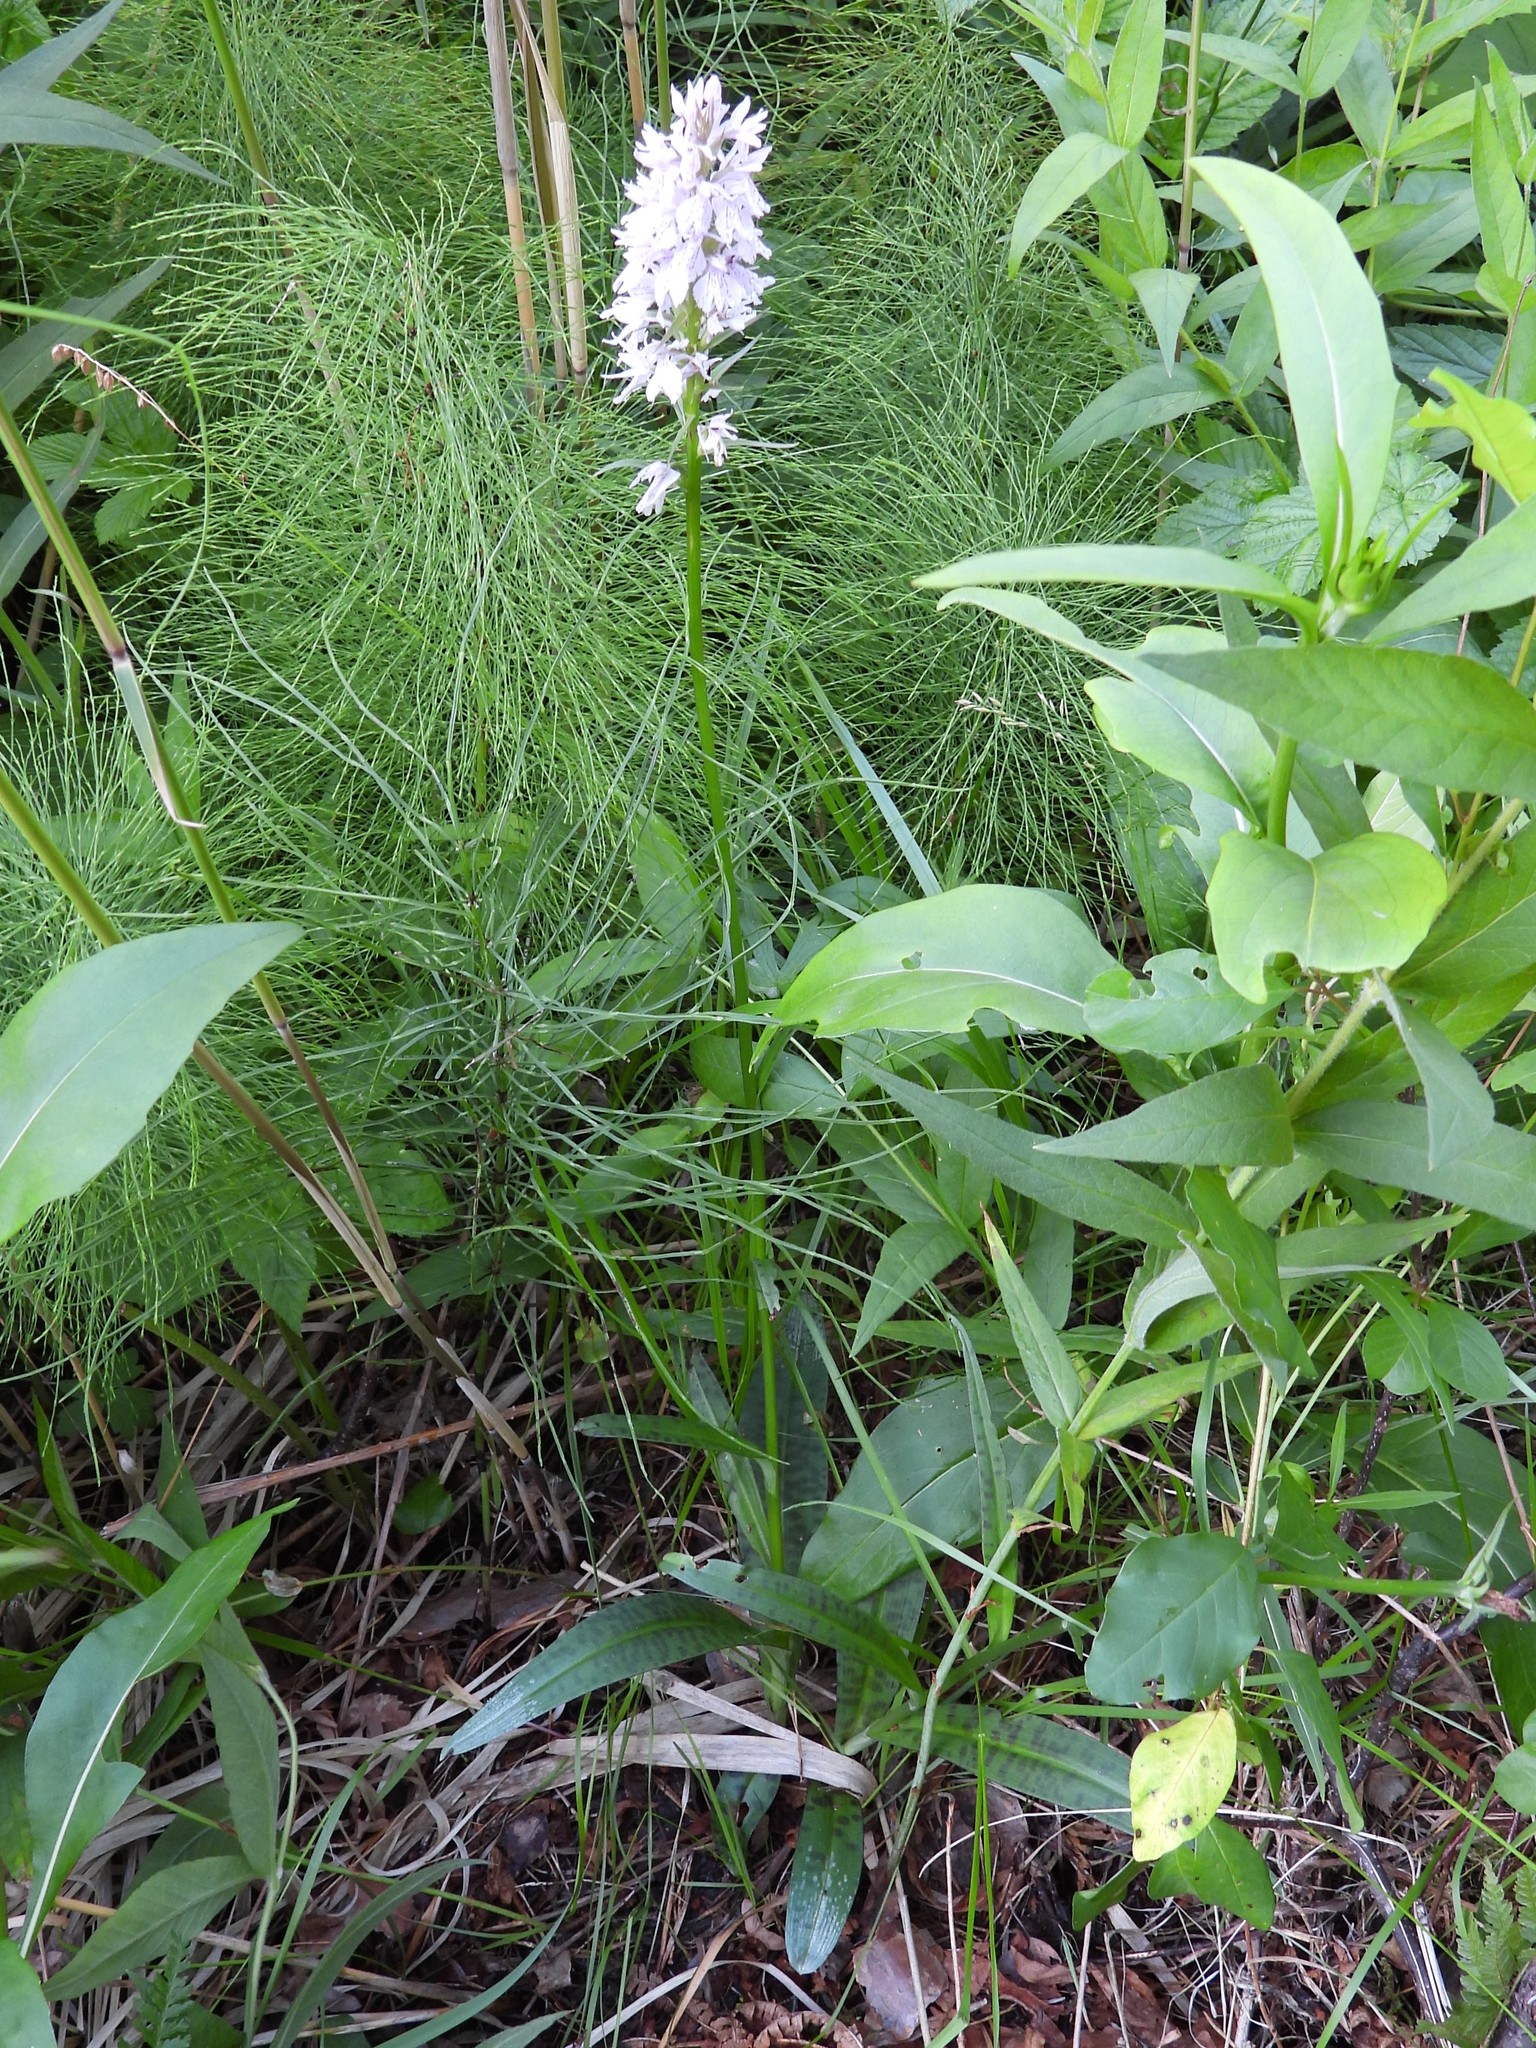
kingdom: Plantae
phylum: Tracheophyta
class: Liliopsida
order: Asparagales
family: Orchidaceae
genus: Dactylorhiza
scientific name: Dactylorhiza maculata
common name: Heath spotted-orchid
